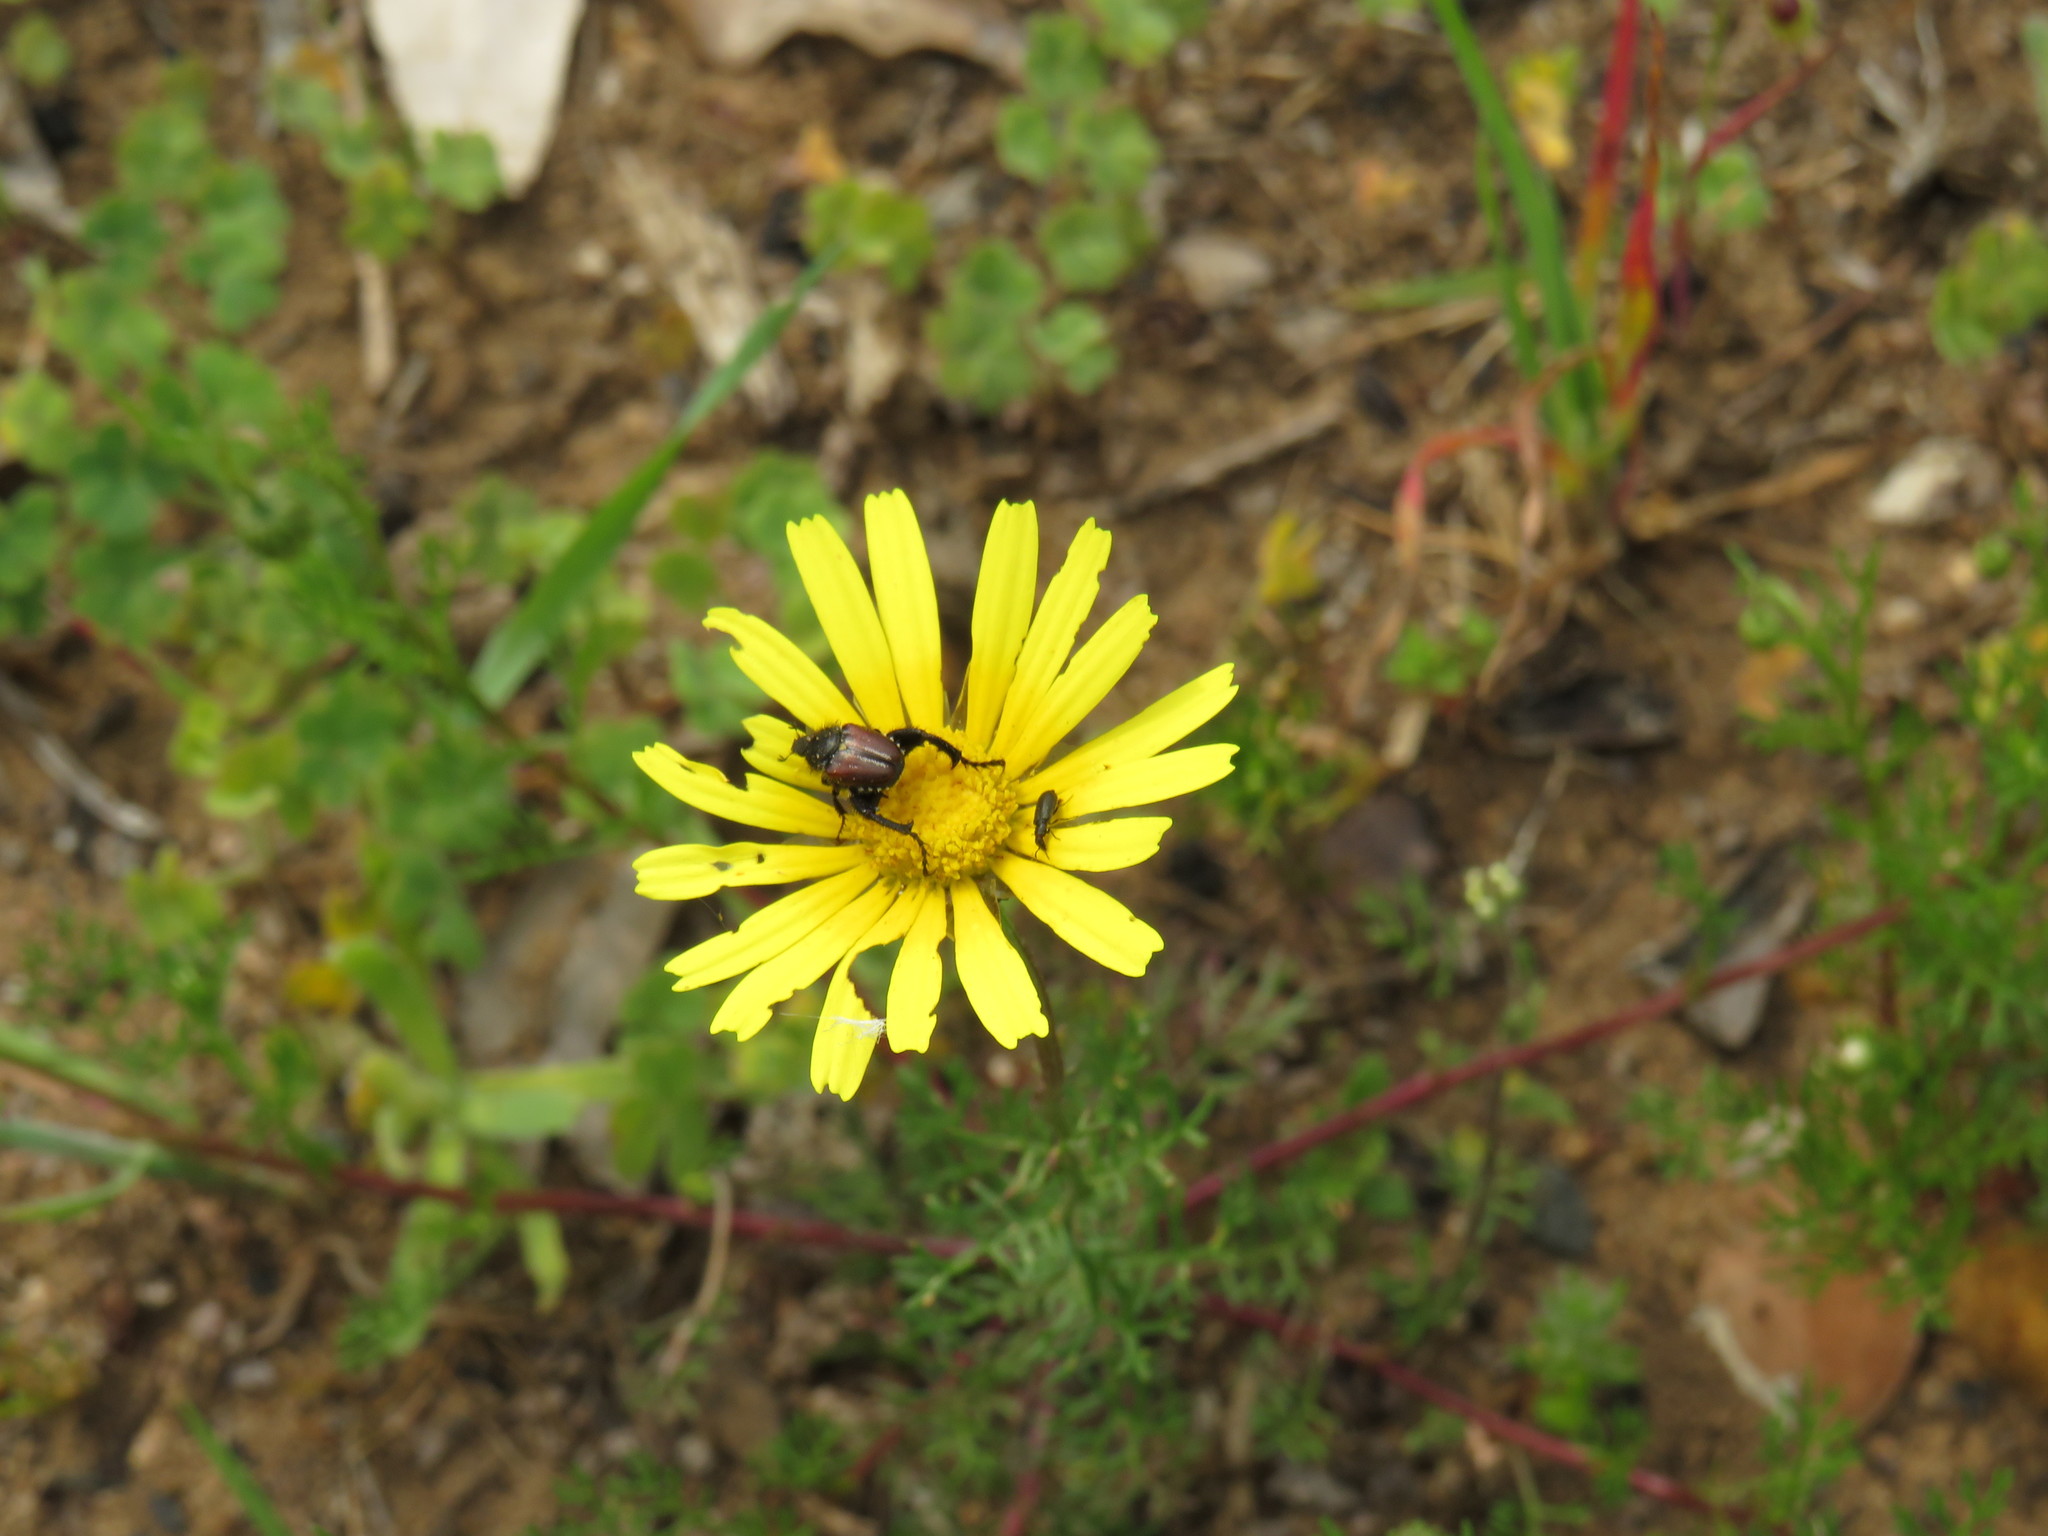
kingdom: Plantae
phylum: Tracheophyta
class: Magnoliopsida
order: Asterales
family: Asteraceae
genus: Ursinia
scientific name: Ursinia anthemoides
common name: Ursinia
